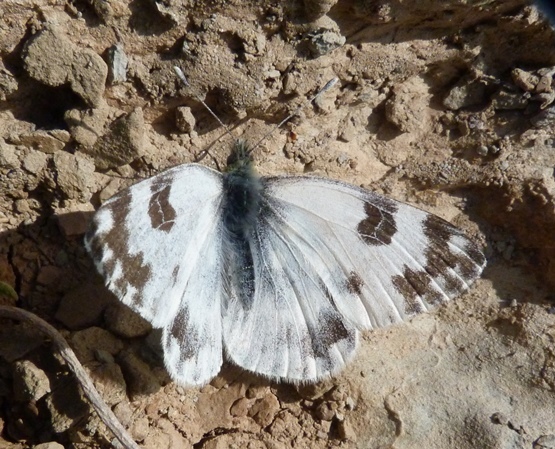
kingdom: Animalia
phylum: Arthropoda
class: Insecta
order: Lepidoptera
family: Pieridae
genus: Pontia
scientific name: Pontia daplidice
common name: Bath white
